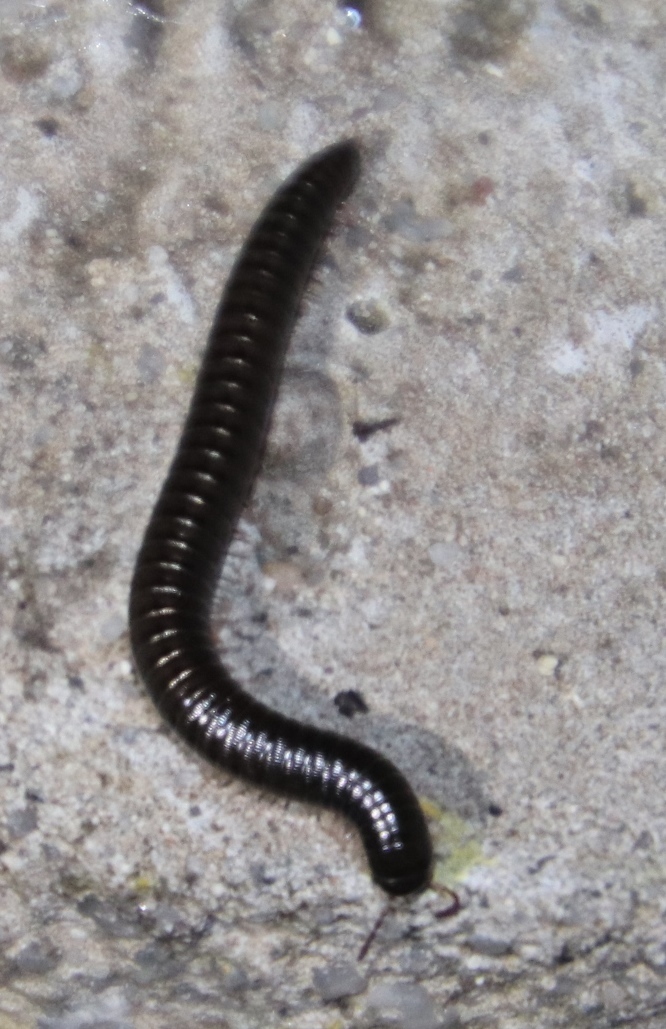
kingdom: Animalia
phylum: Arthropoda
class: Diplopoda
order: Julida
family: Julidae
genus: Ommatoiulus
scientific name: Ommatoiulus moreleti
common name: Portuguese millipede
